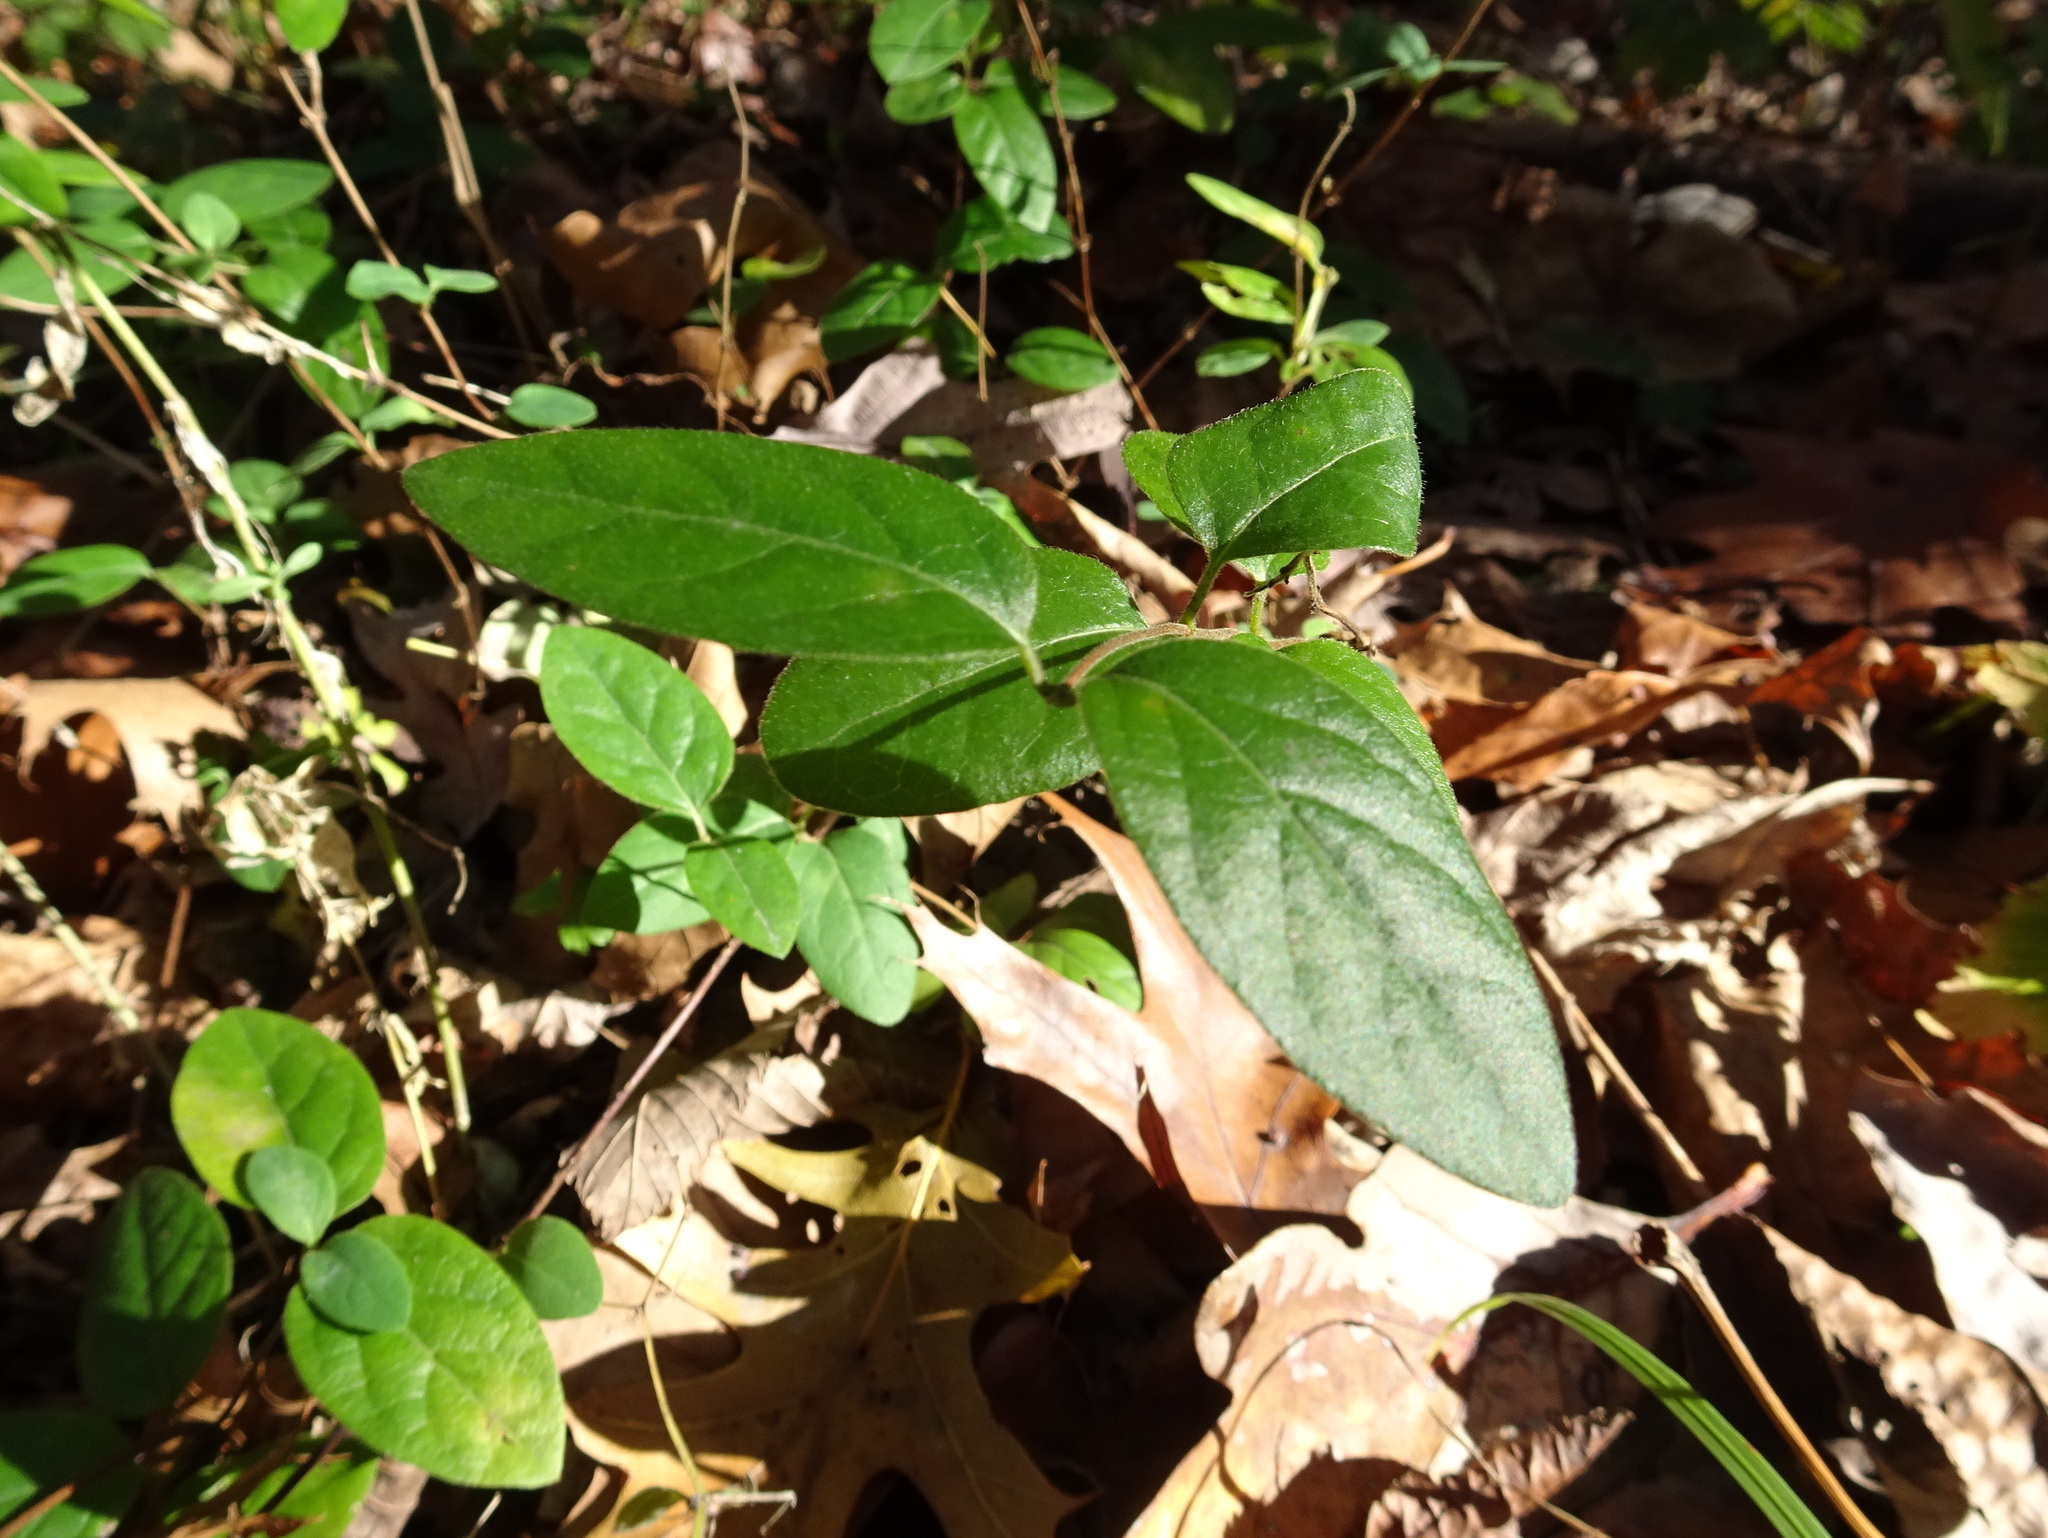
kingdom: Plantae
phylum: Tracheophyta
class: Magnoliopsida
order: Dipsacales
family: Caprifoliaceae
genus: Lonicera
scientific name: Lonicera japonica
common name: Japanese honeysuckle
